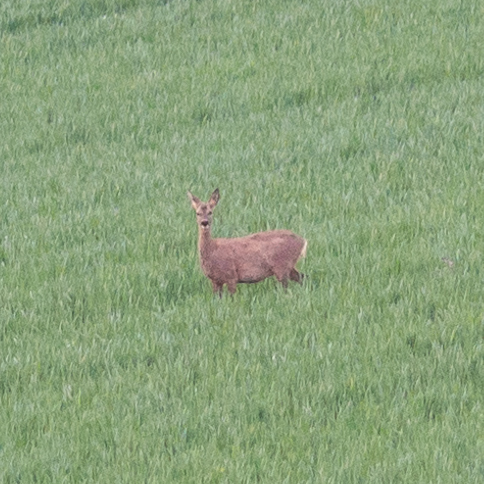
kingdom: Animalia
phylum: Chordata
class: Mammalia
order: Artiodactyla
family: Cervidae
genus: Capreolus
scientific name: Capreolus capreolus
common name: Western roe deer
